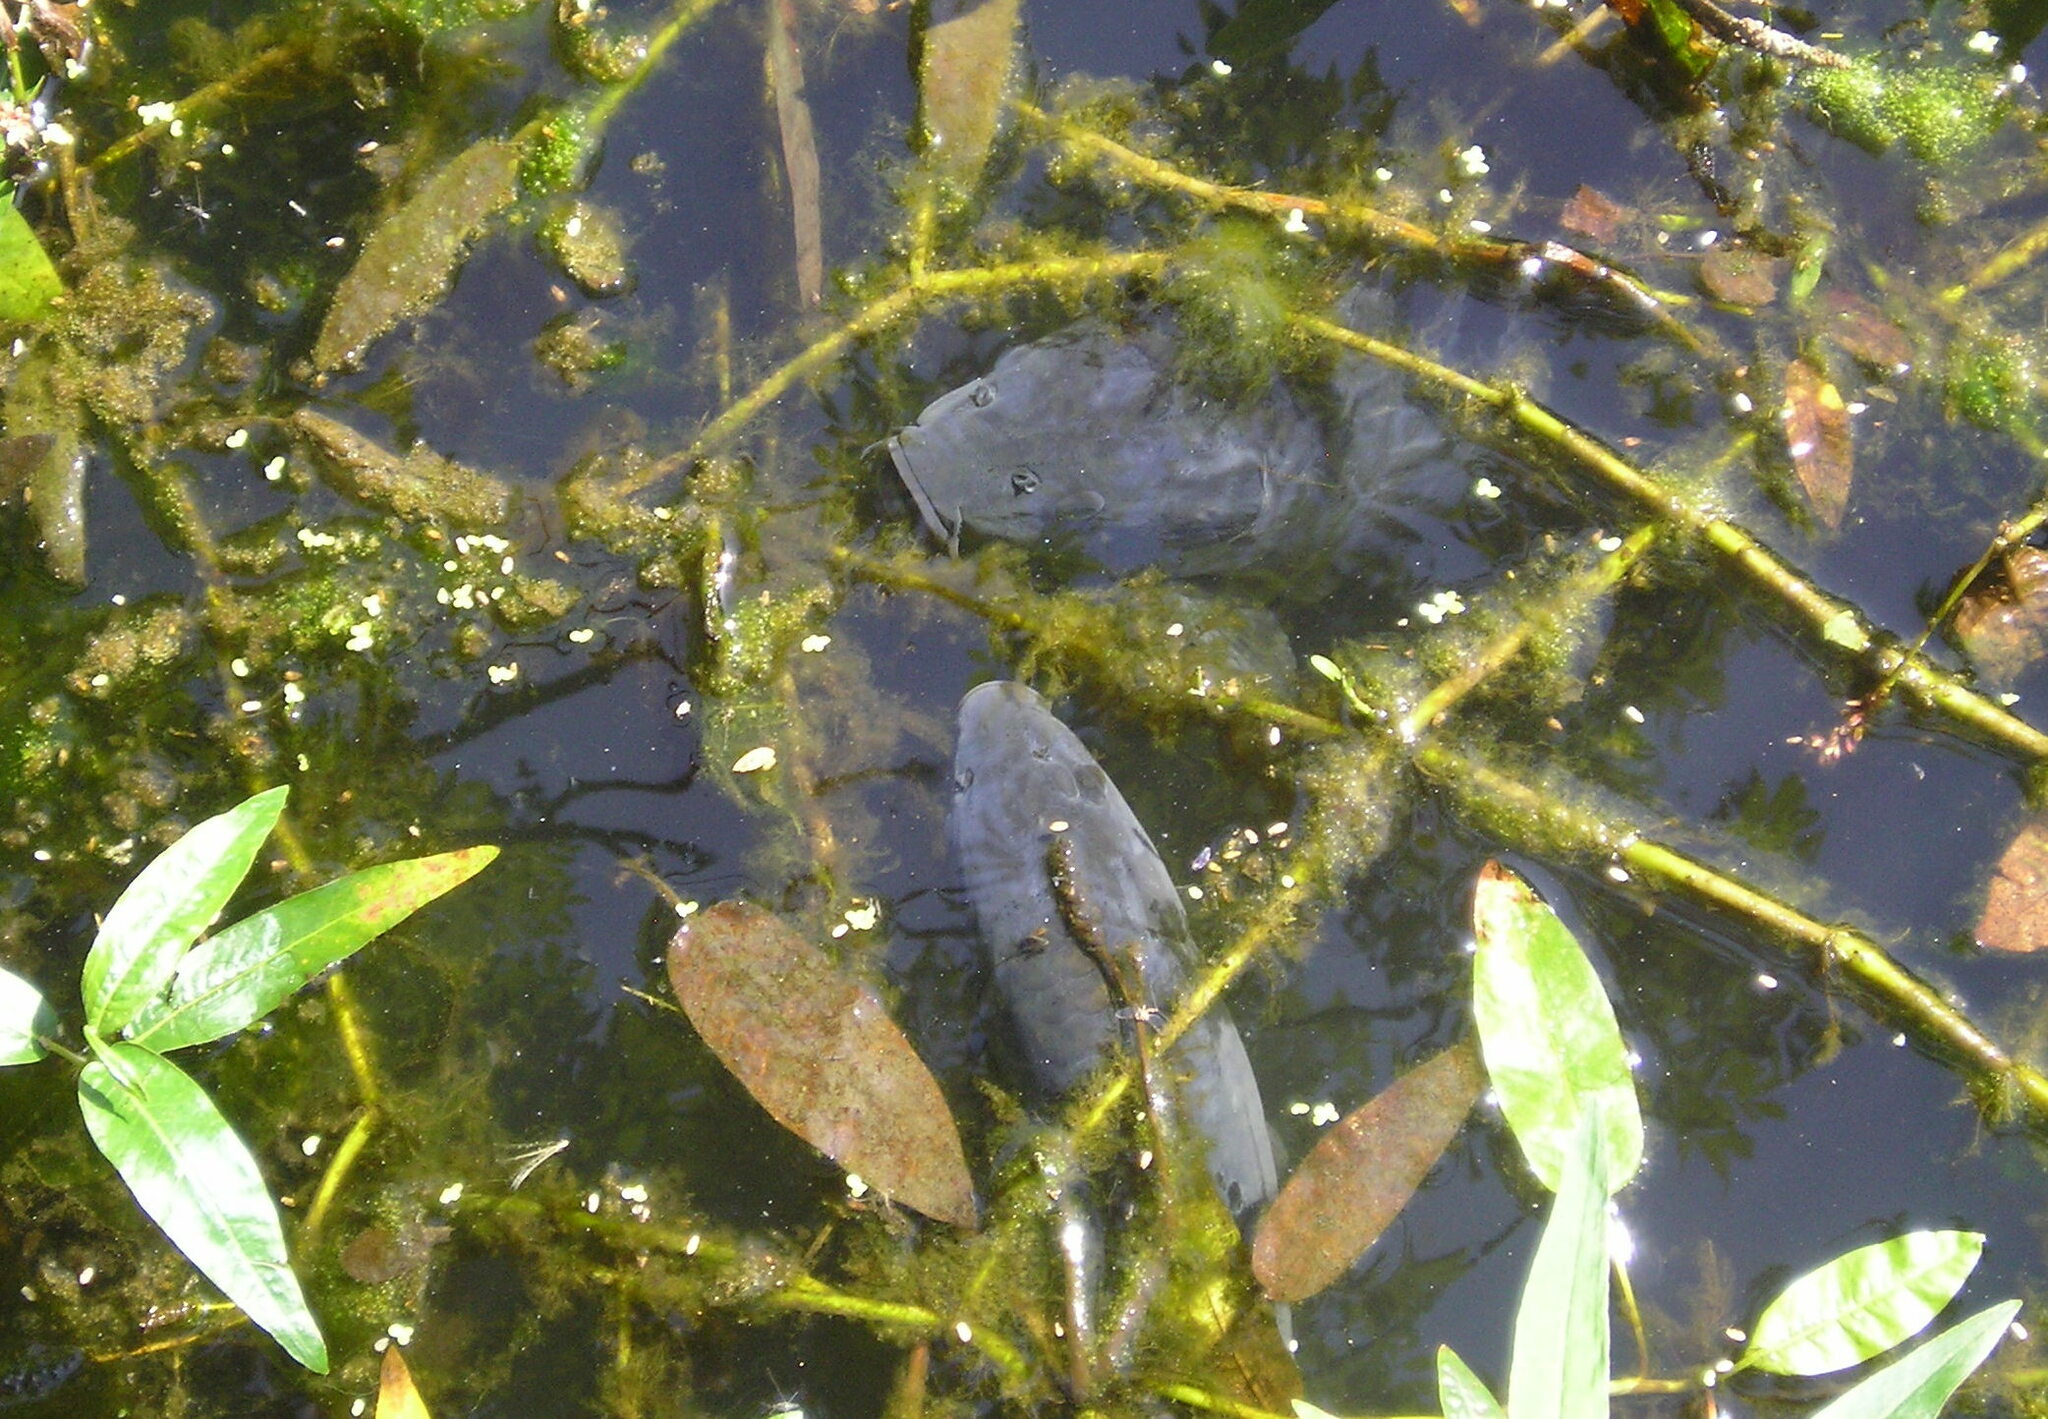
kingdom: Animalia
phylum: Chordata
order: Cypriniformes
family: Cyprinidae
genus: Cyprinus
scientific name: Cyprinus carpio
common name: Common carp
